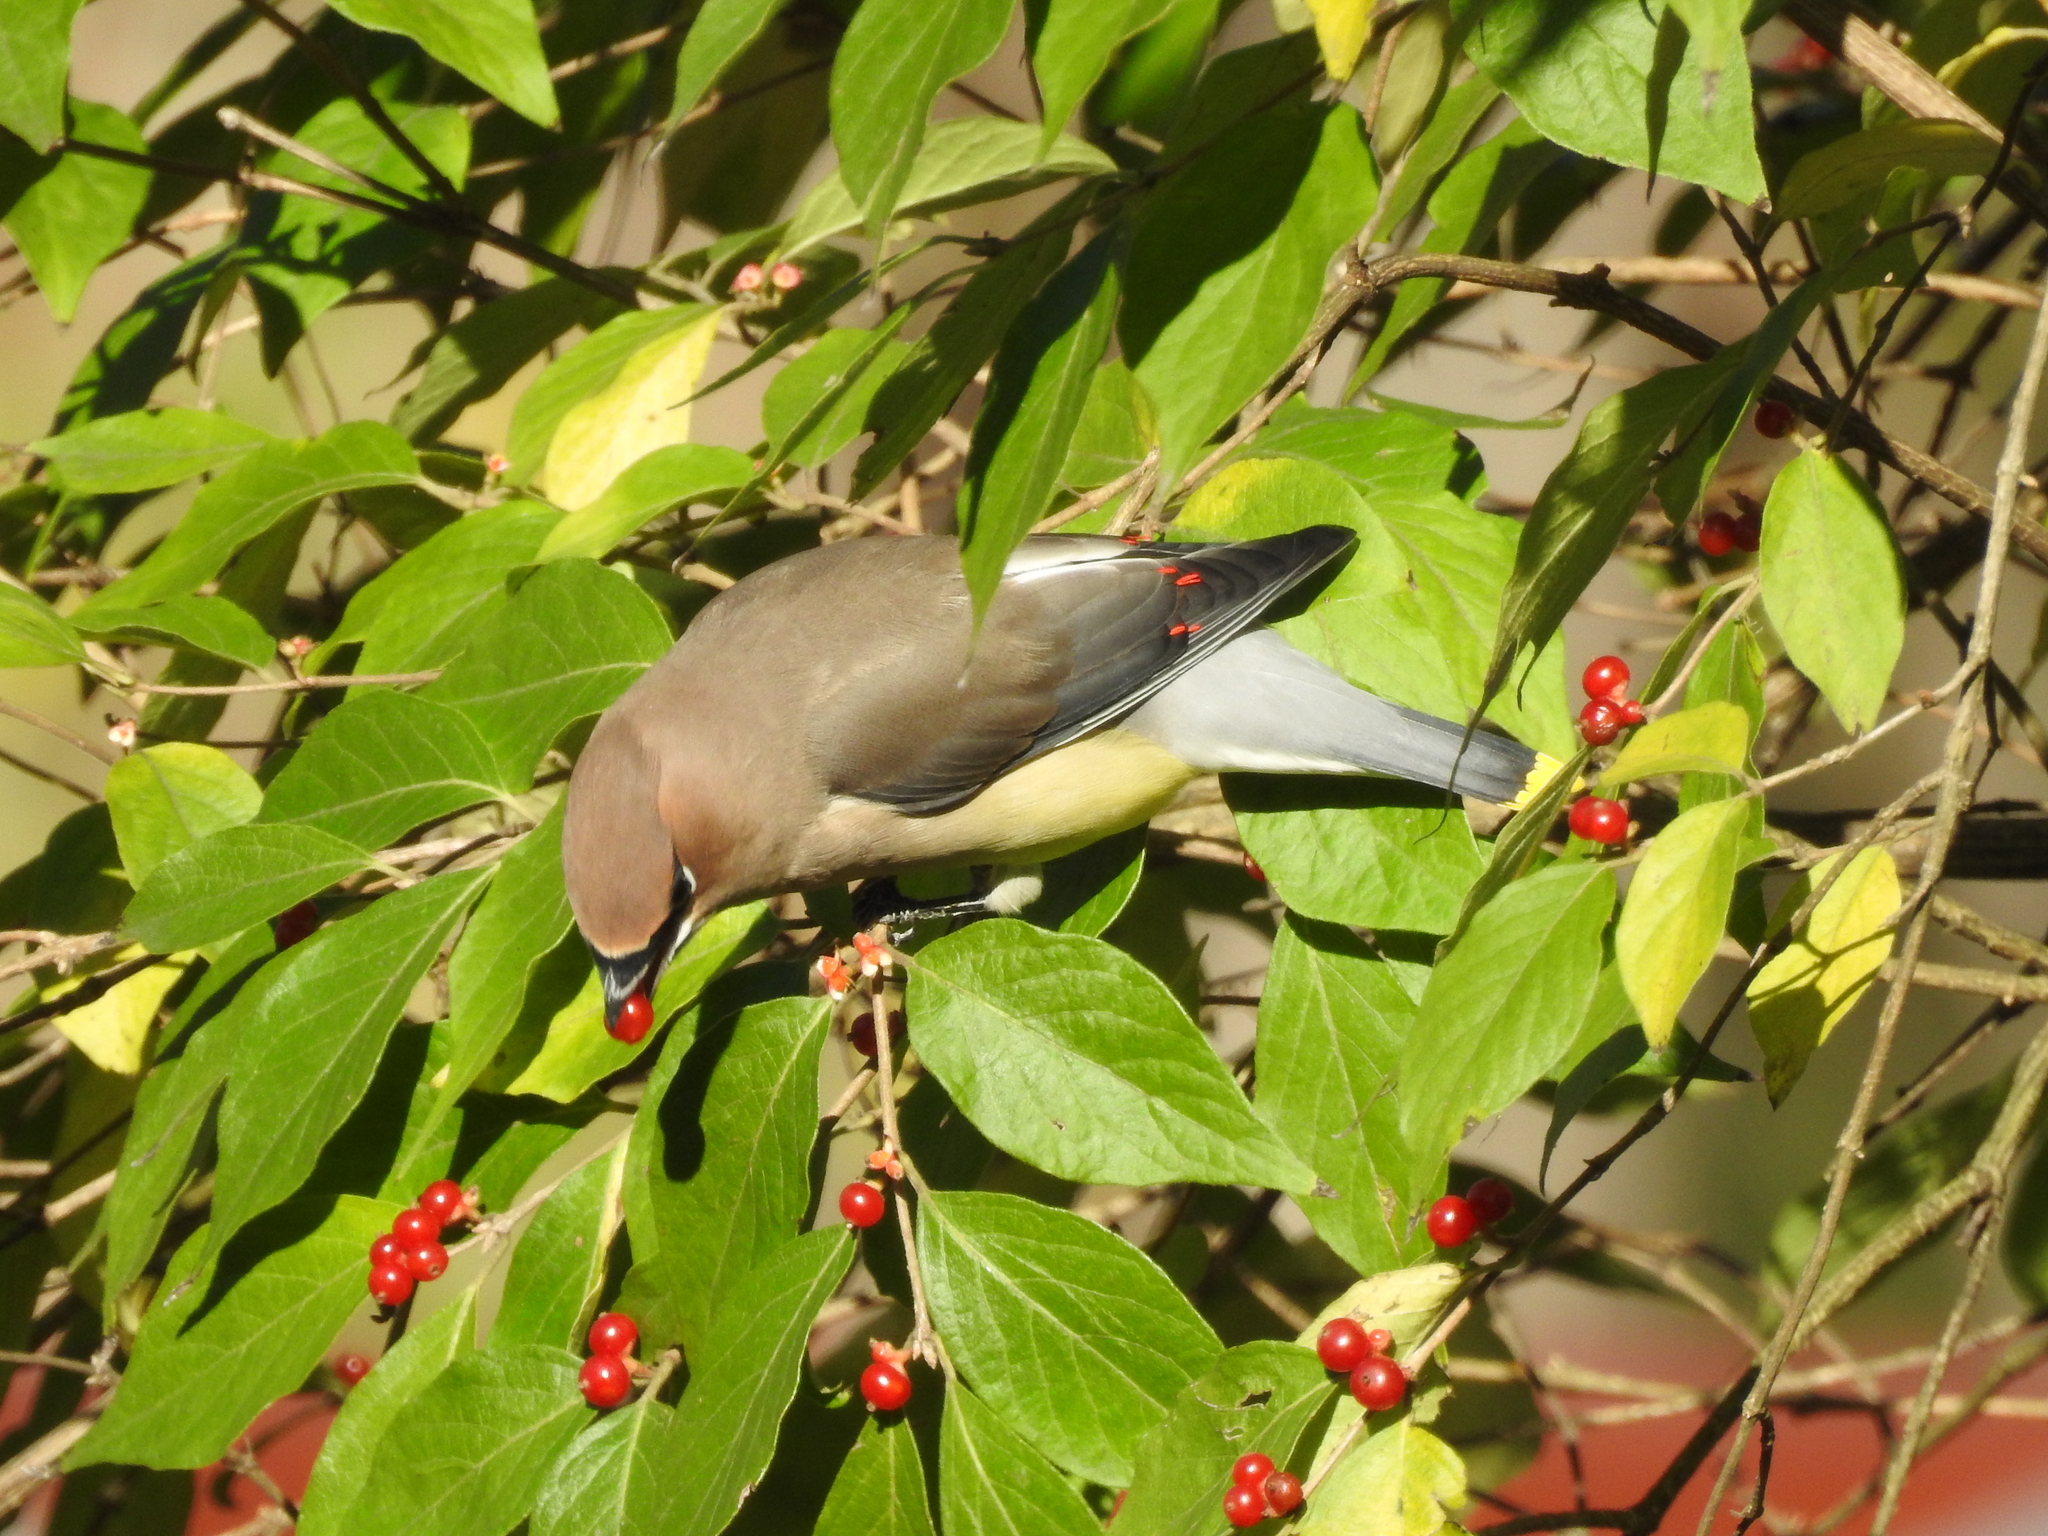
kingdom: Animalia
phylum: Chordata
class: Aves
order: Passeriformes
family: Bombycillidae
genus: Bombycilla
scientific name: Bombycilla cedrorum
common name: Cedar waxwing
